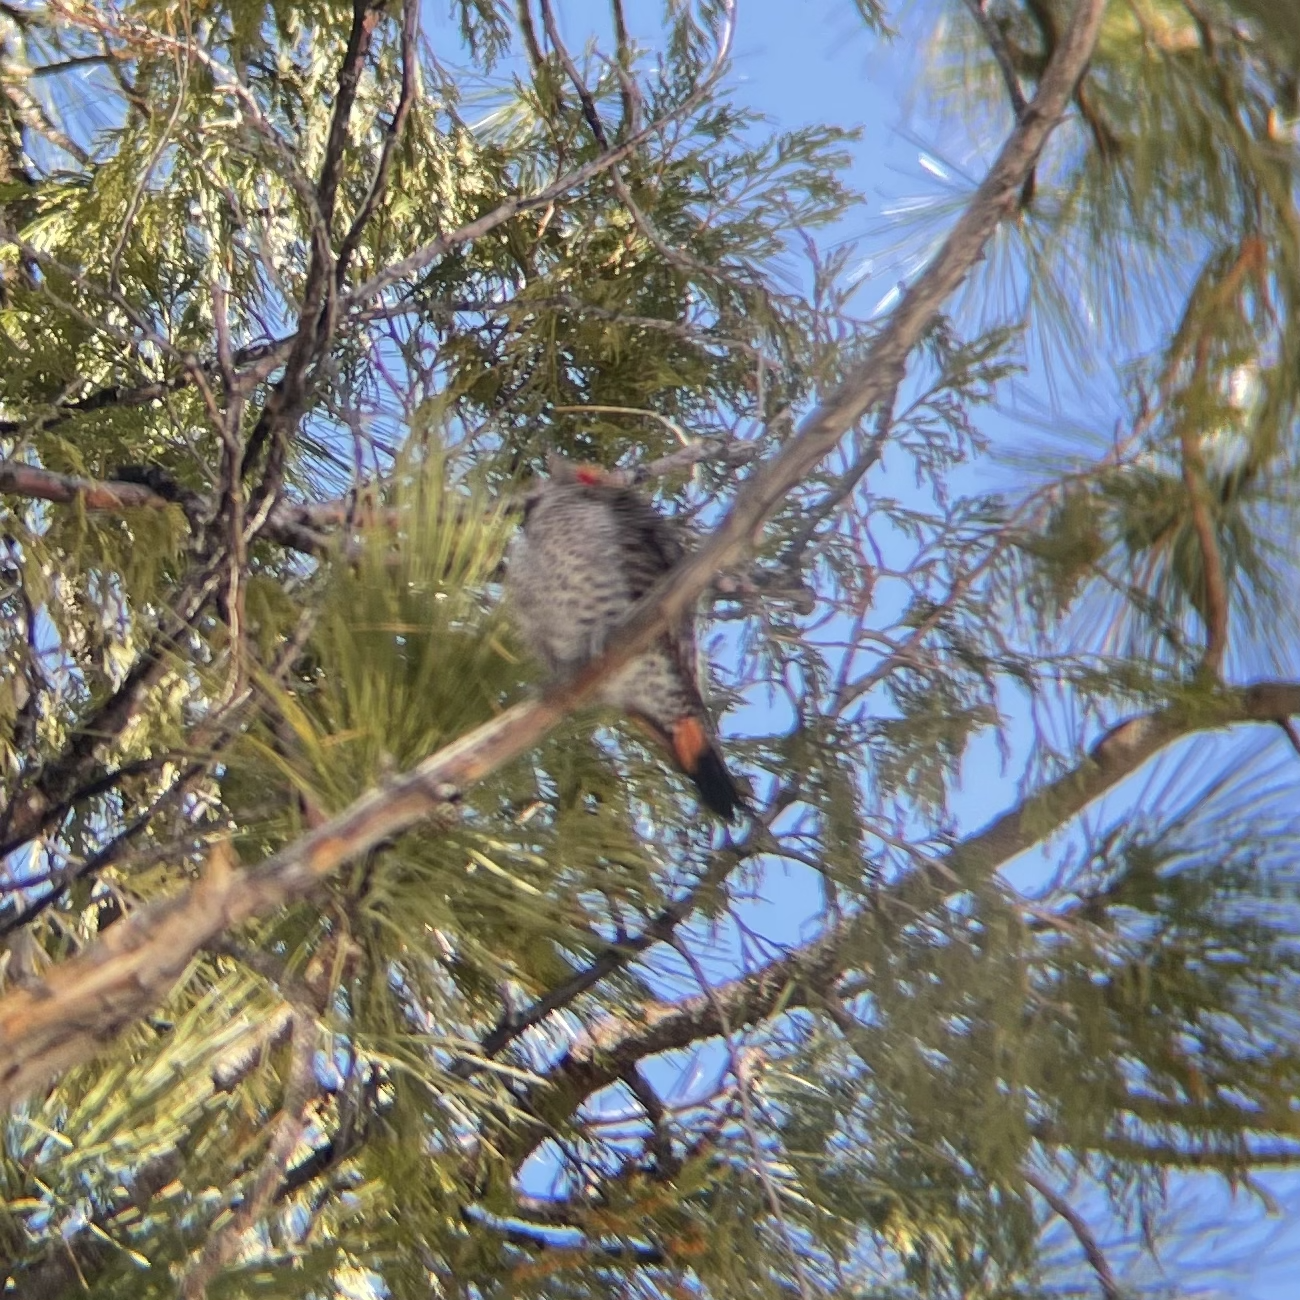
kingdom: Animalia
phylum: Chordata
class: Aves
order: Piciformes
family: Picidae
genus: Colaptes
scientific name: Colaptes auratus
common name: Northern flicker
